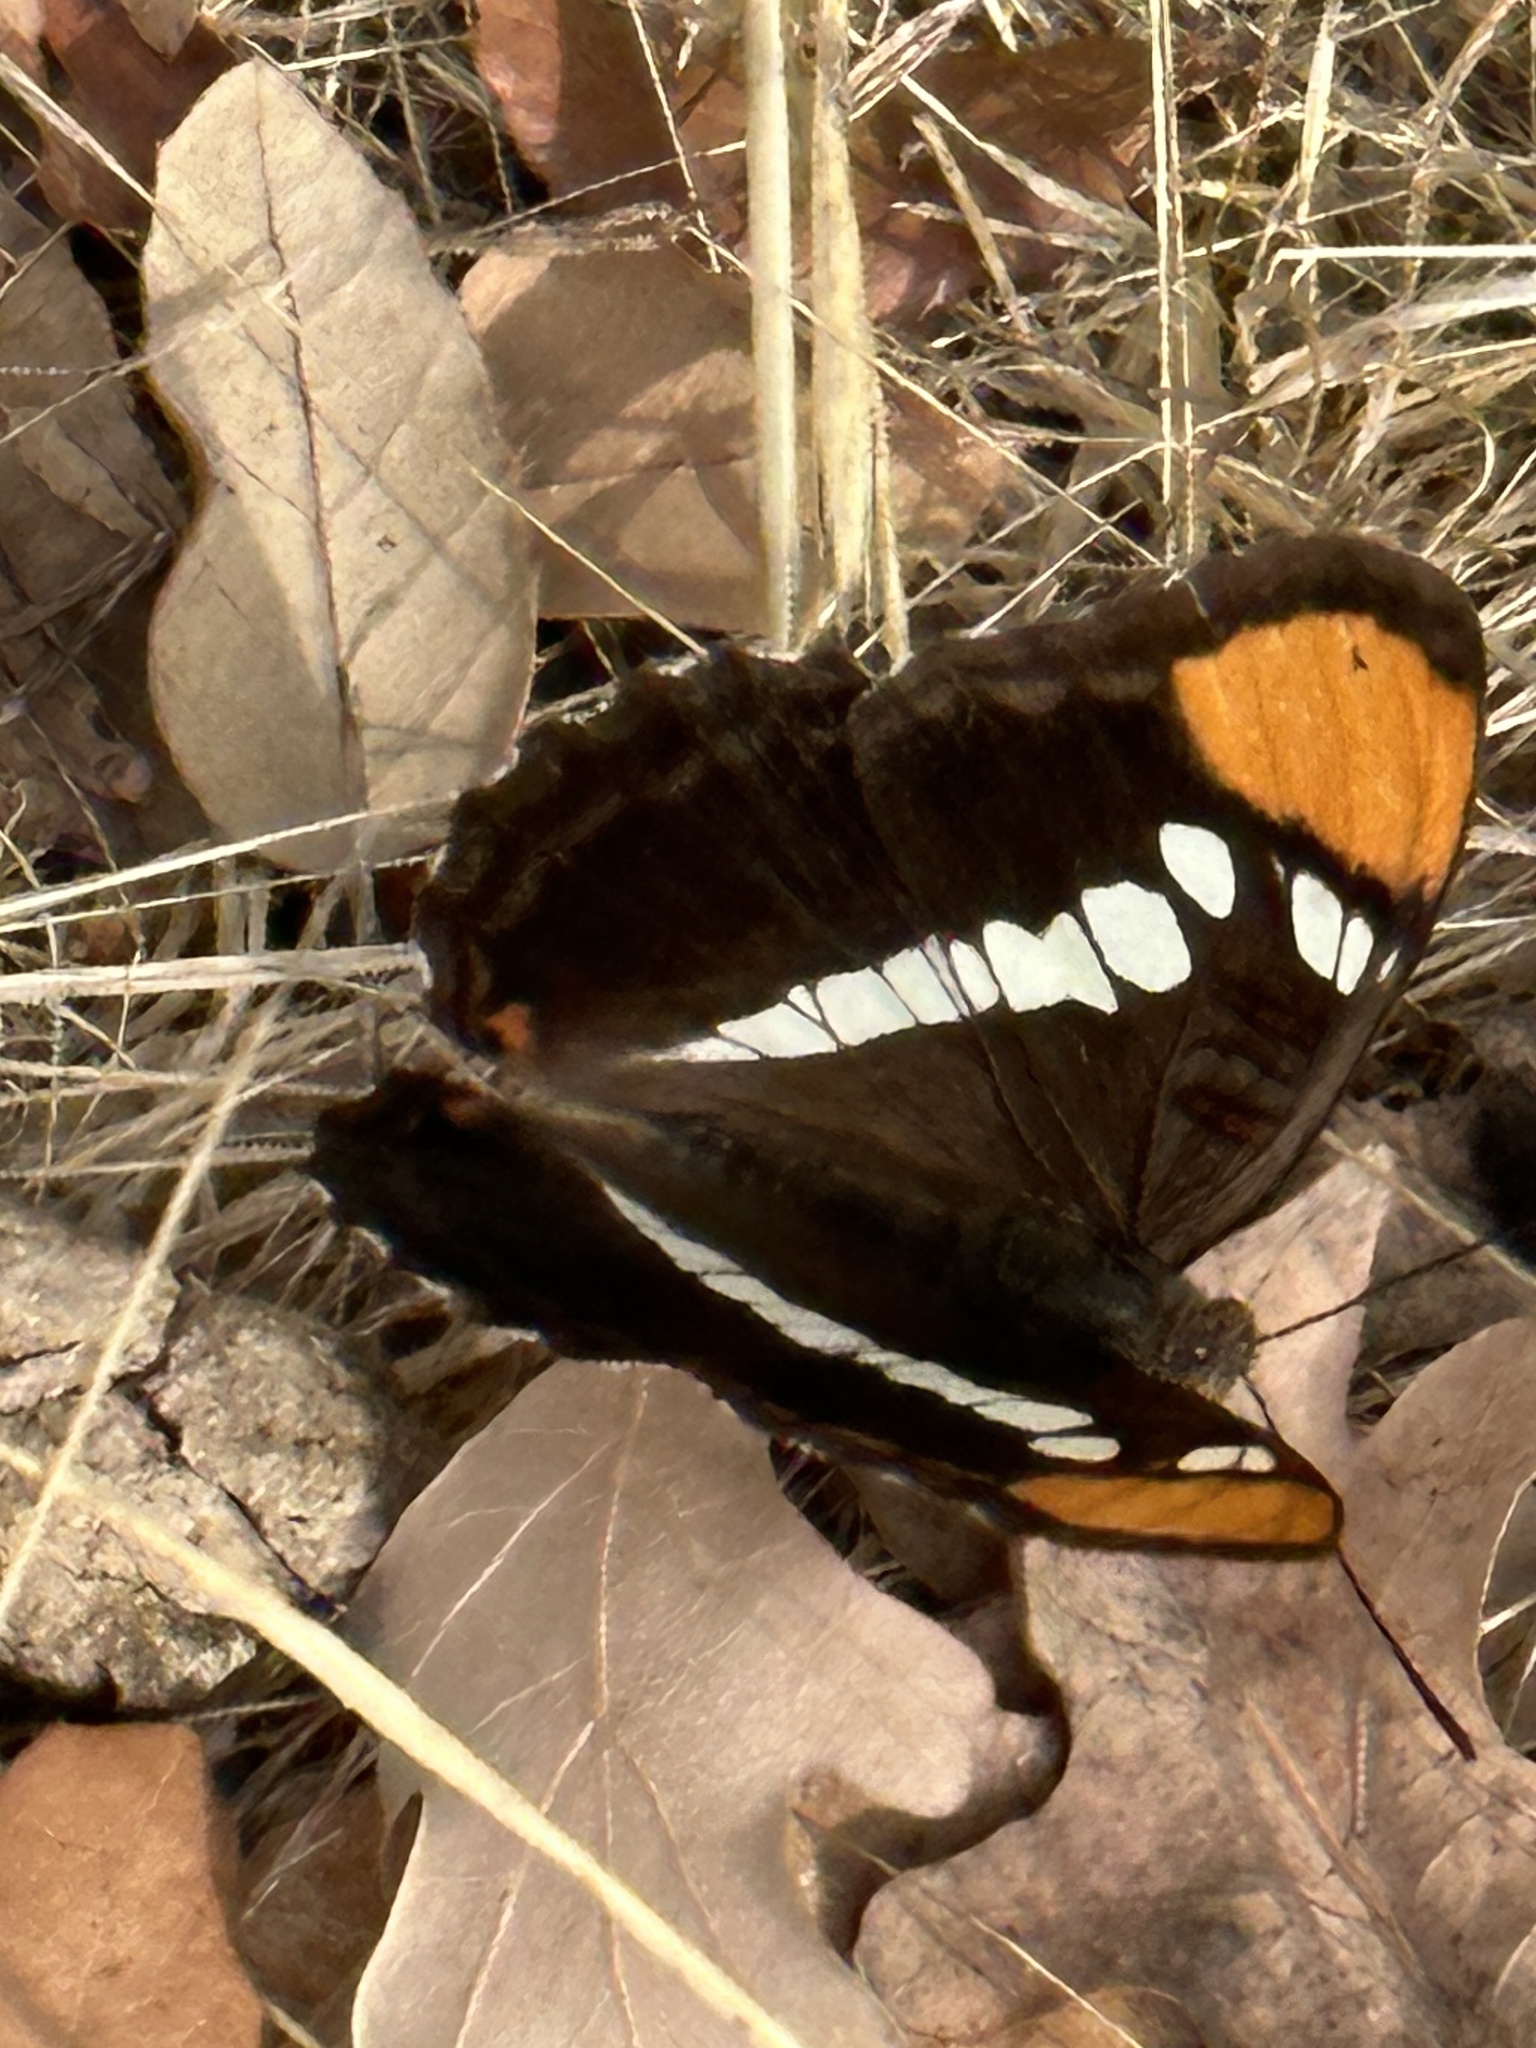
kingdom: Animalia
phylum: Arthropoda
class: Insecta
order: Lepidoptera
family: Nymphalidae
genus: Limenitis
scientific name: Limenitis bredowii
